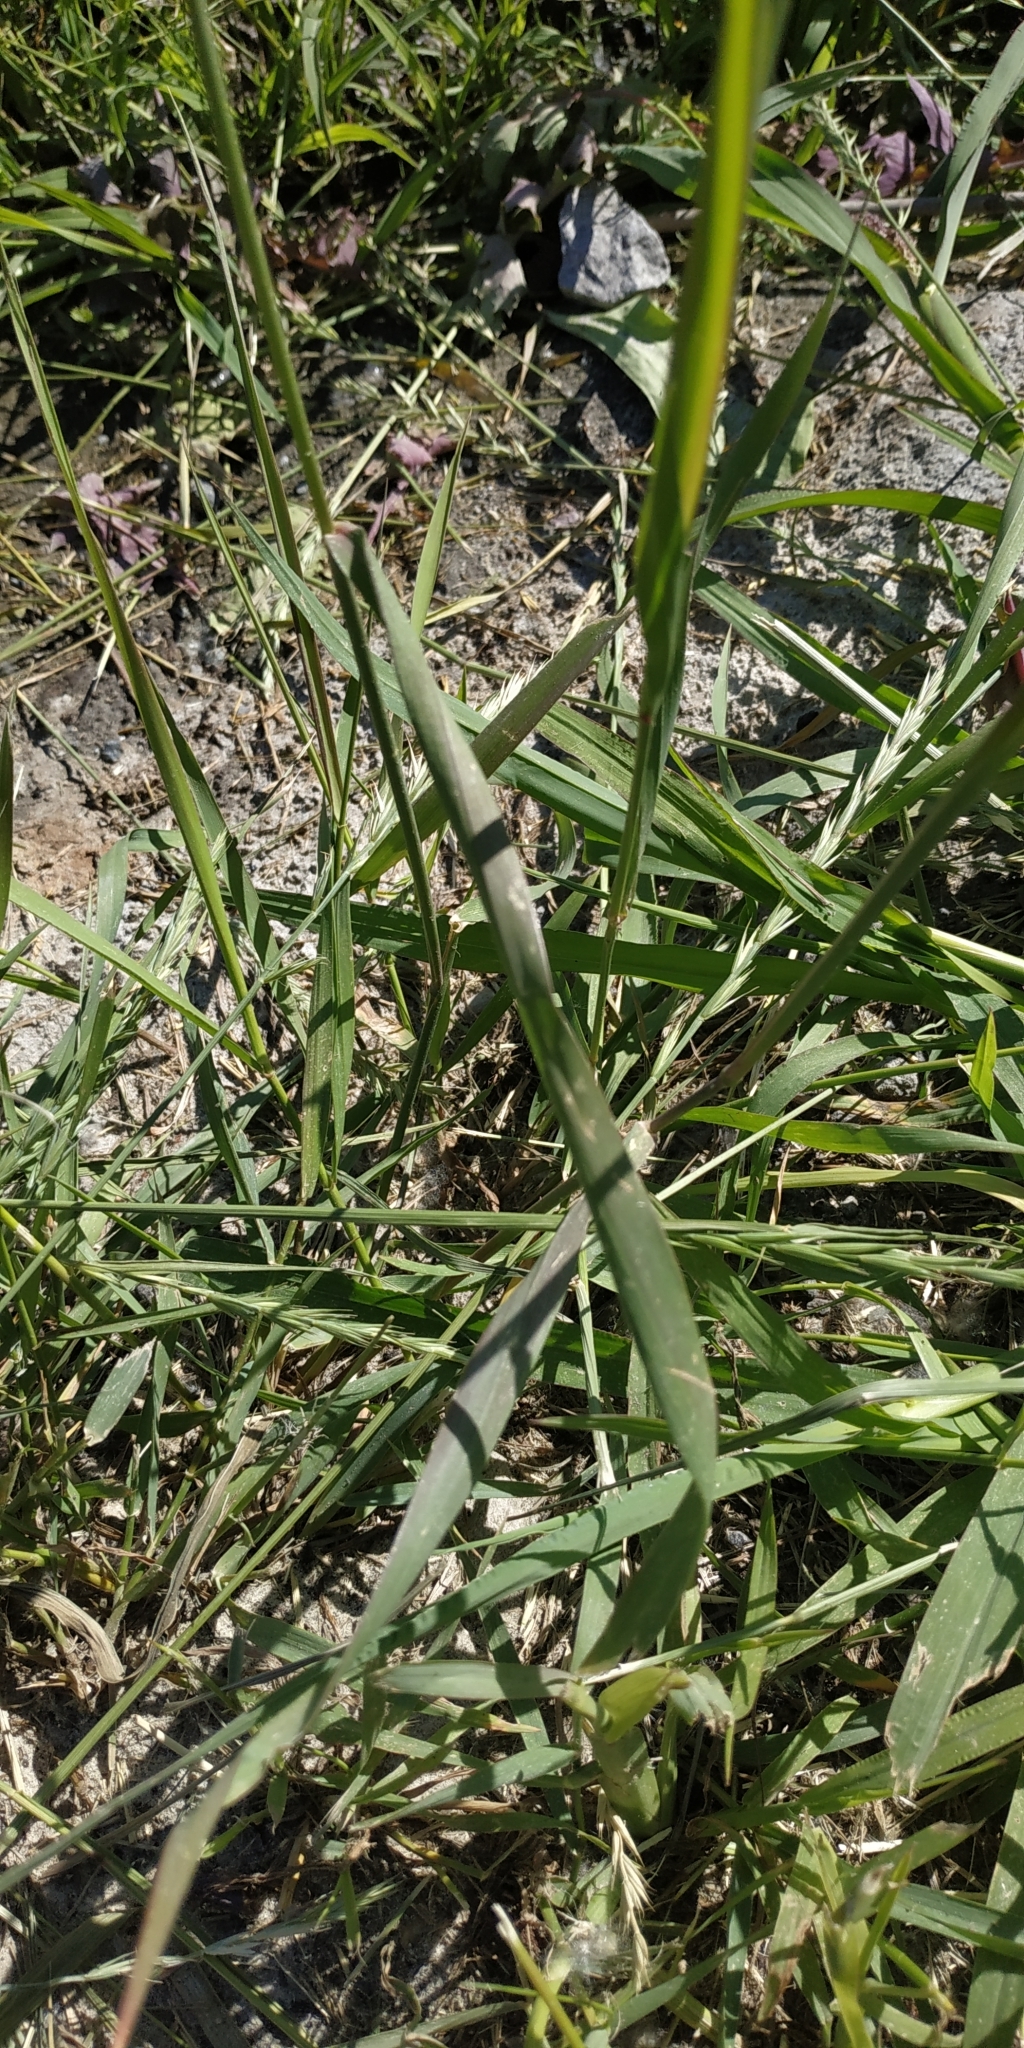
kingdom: Plantae
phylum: Tracheophyta
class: Liliopsida
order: Poales
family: Poaceae
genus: Lolium
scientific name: Lolium perenne
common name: Perennial ryegrass
